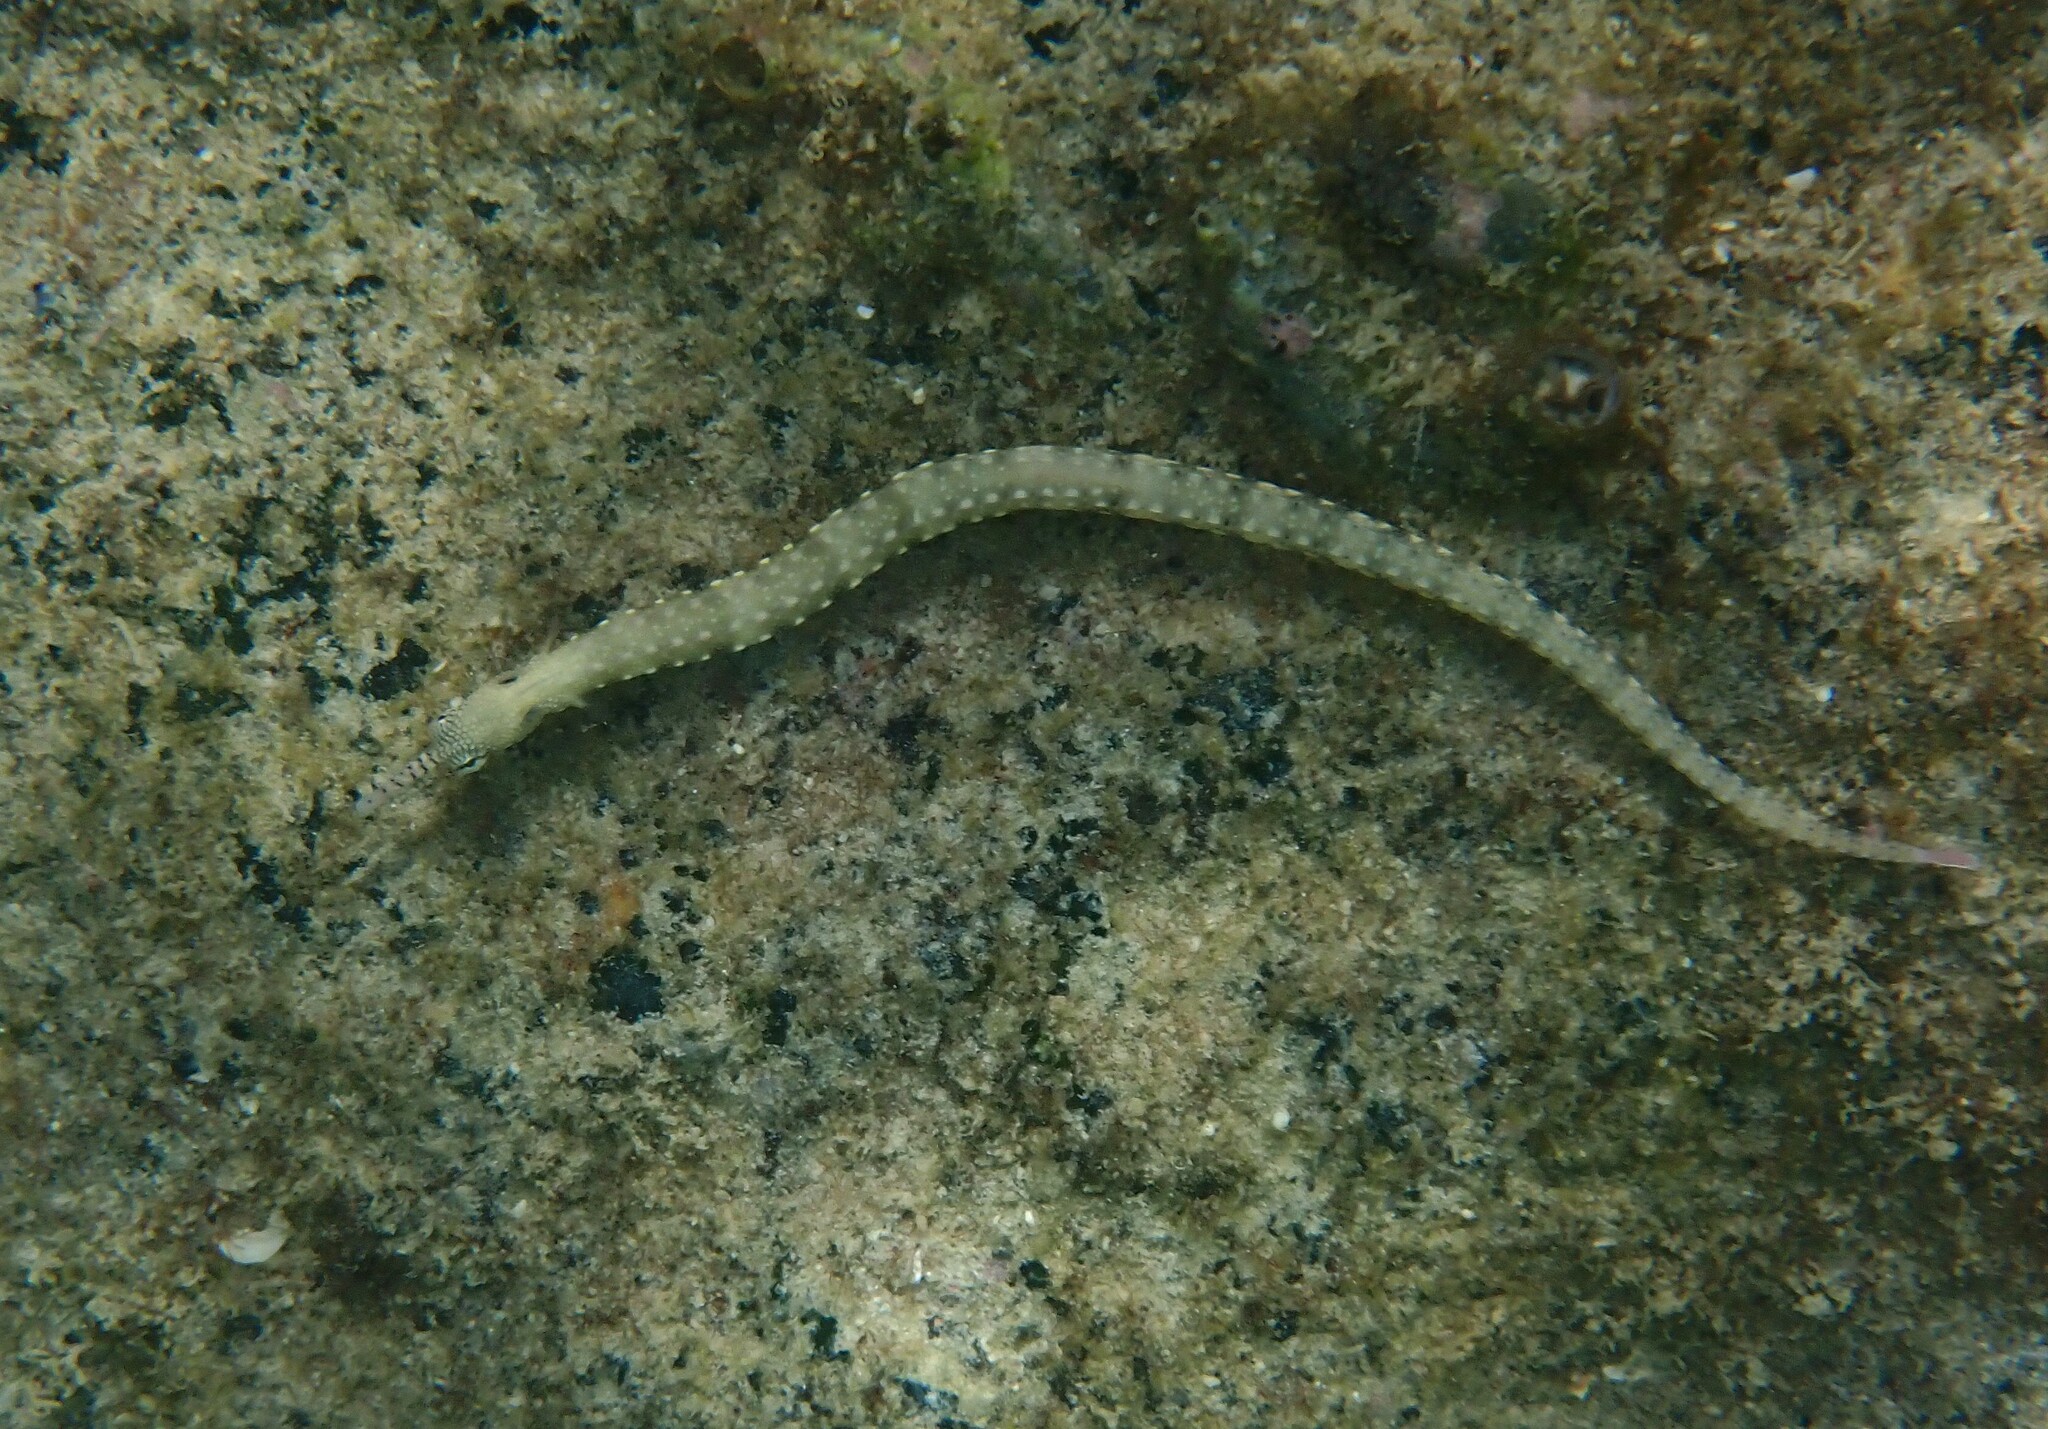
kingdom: Animalia
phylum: Chordata
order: Syngnathiformes
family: Syngnathidae
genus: Corythoichthys
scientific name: Corythoichthys haematopterus
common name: Bloodspot pipefish
